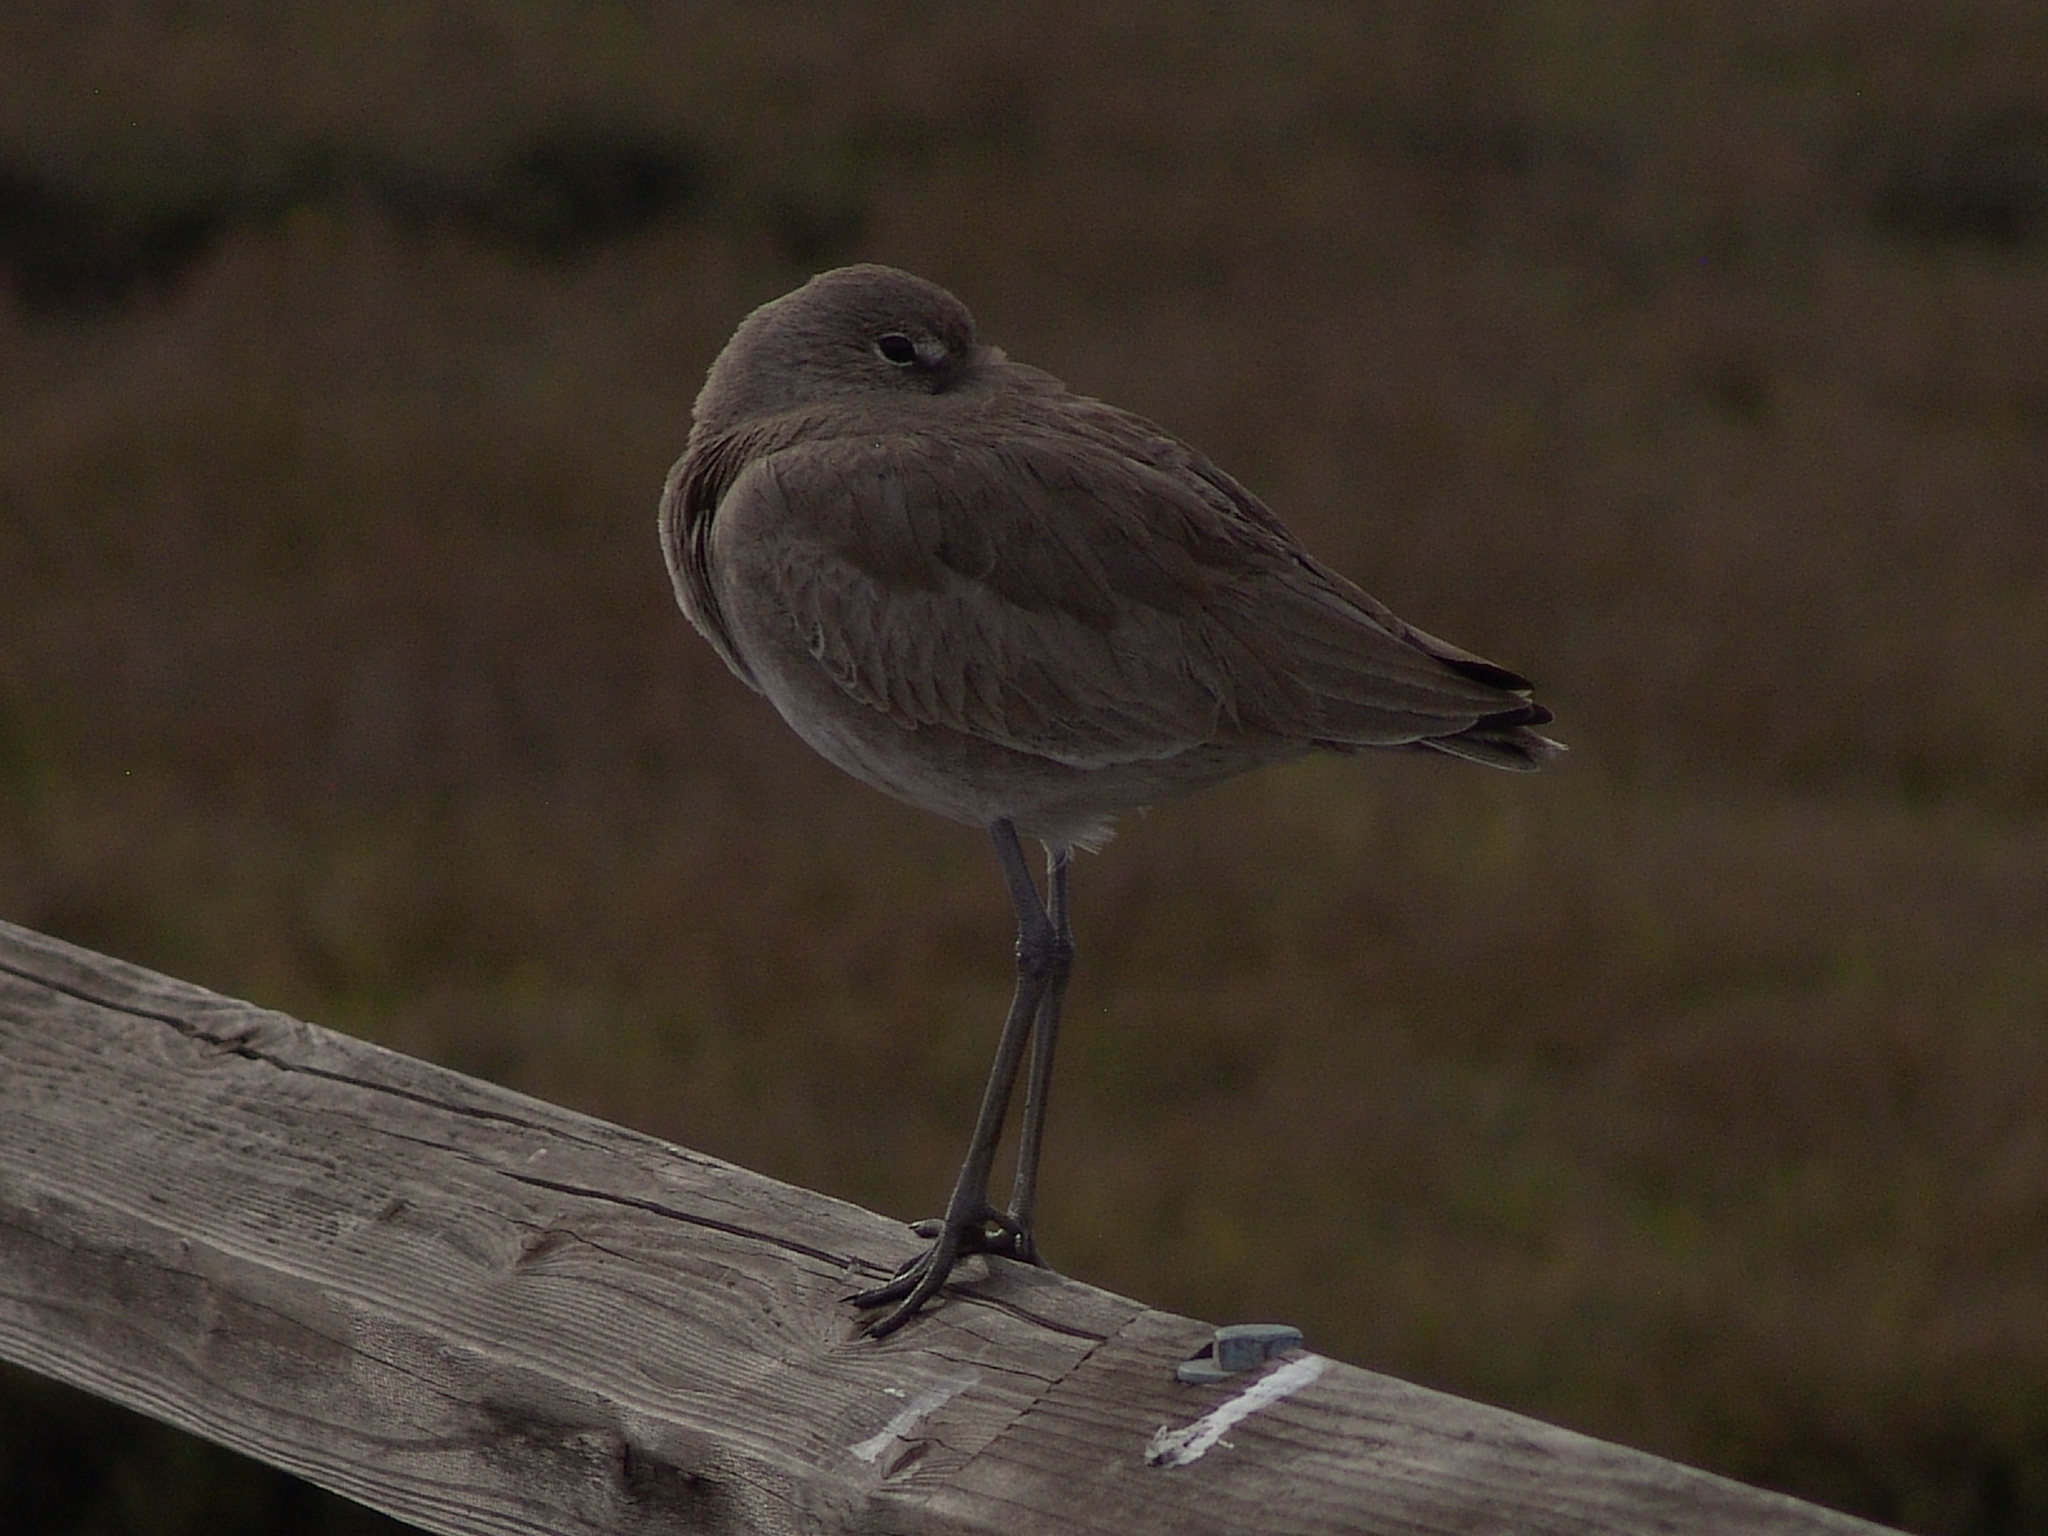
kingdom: Animalia
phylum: Chordata
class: Aves
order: Charadriiformes
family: Scolopacidae
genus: Tringa
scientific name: Tringa semipalmata
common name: Willet
